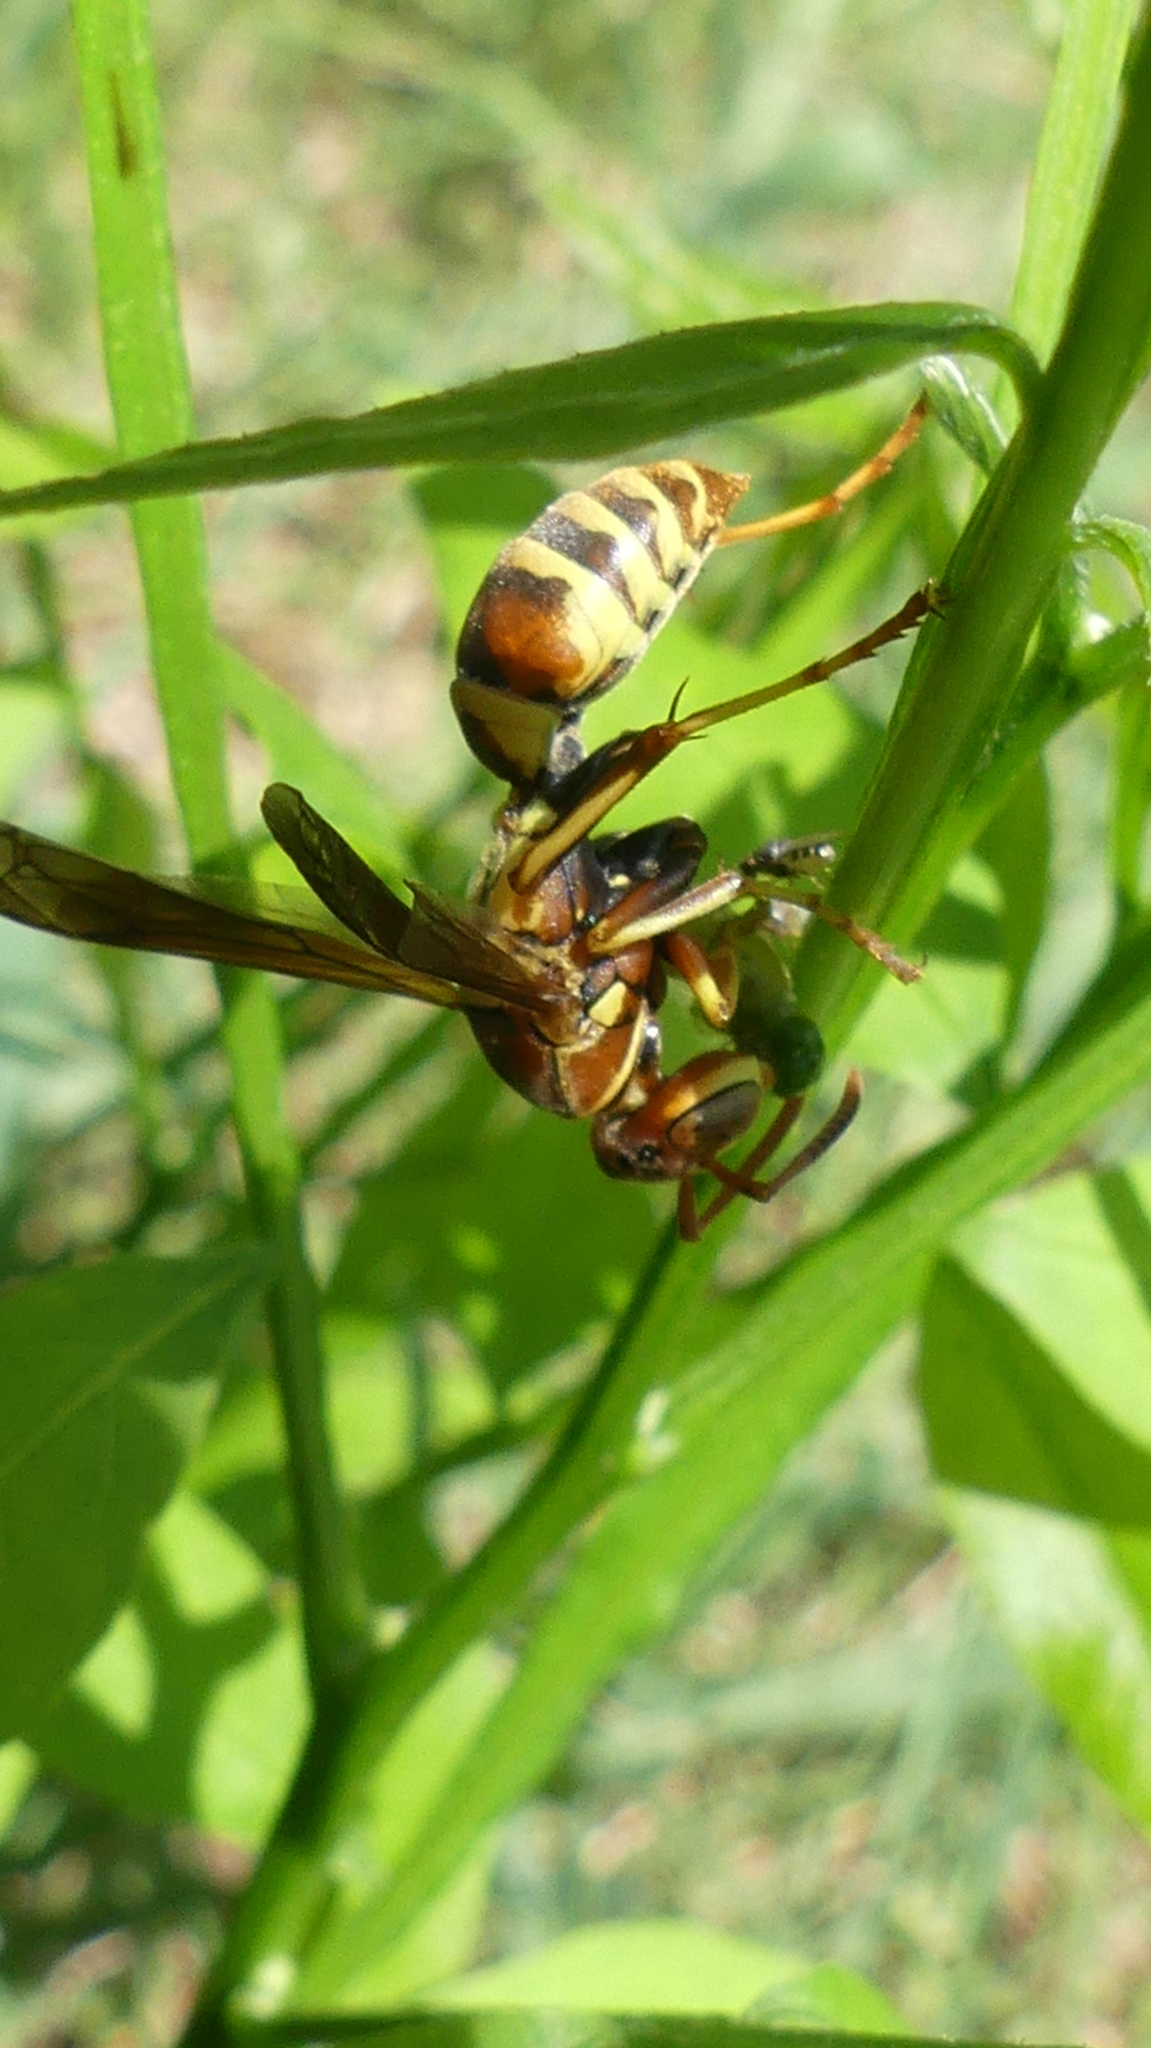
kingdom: Animalia
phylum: Arthropoda
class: Insecta
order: Hymenoptera
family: Eumenidae
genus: Polistes
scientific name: Polistes dorsalis
